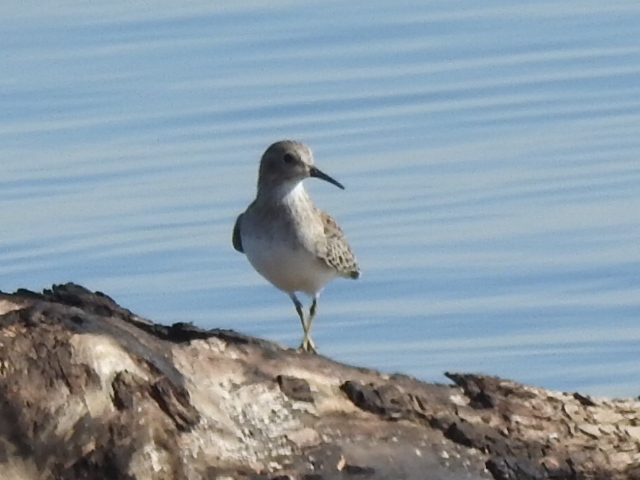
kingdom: Animalia
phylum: Chordata
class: Aves
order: Charadriiformes
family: Scolopacidae
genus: Calidris
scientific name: Calidris minutilla
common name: Least sandpiper
